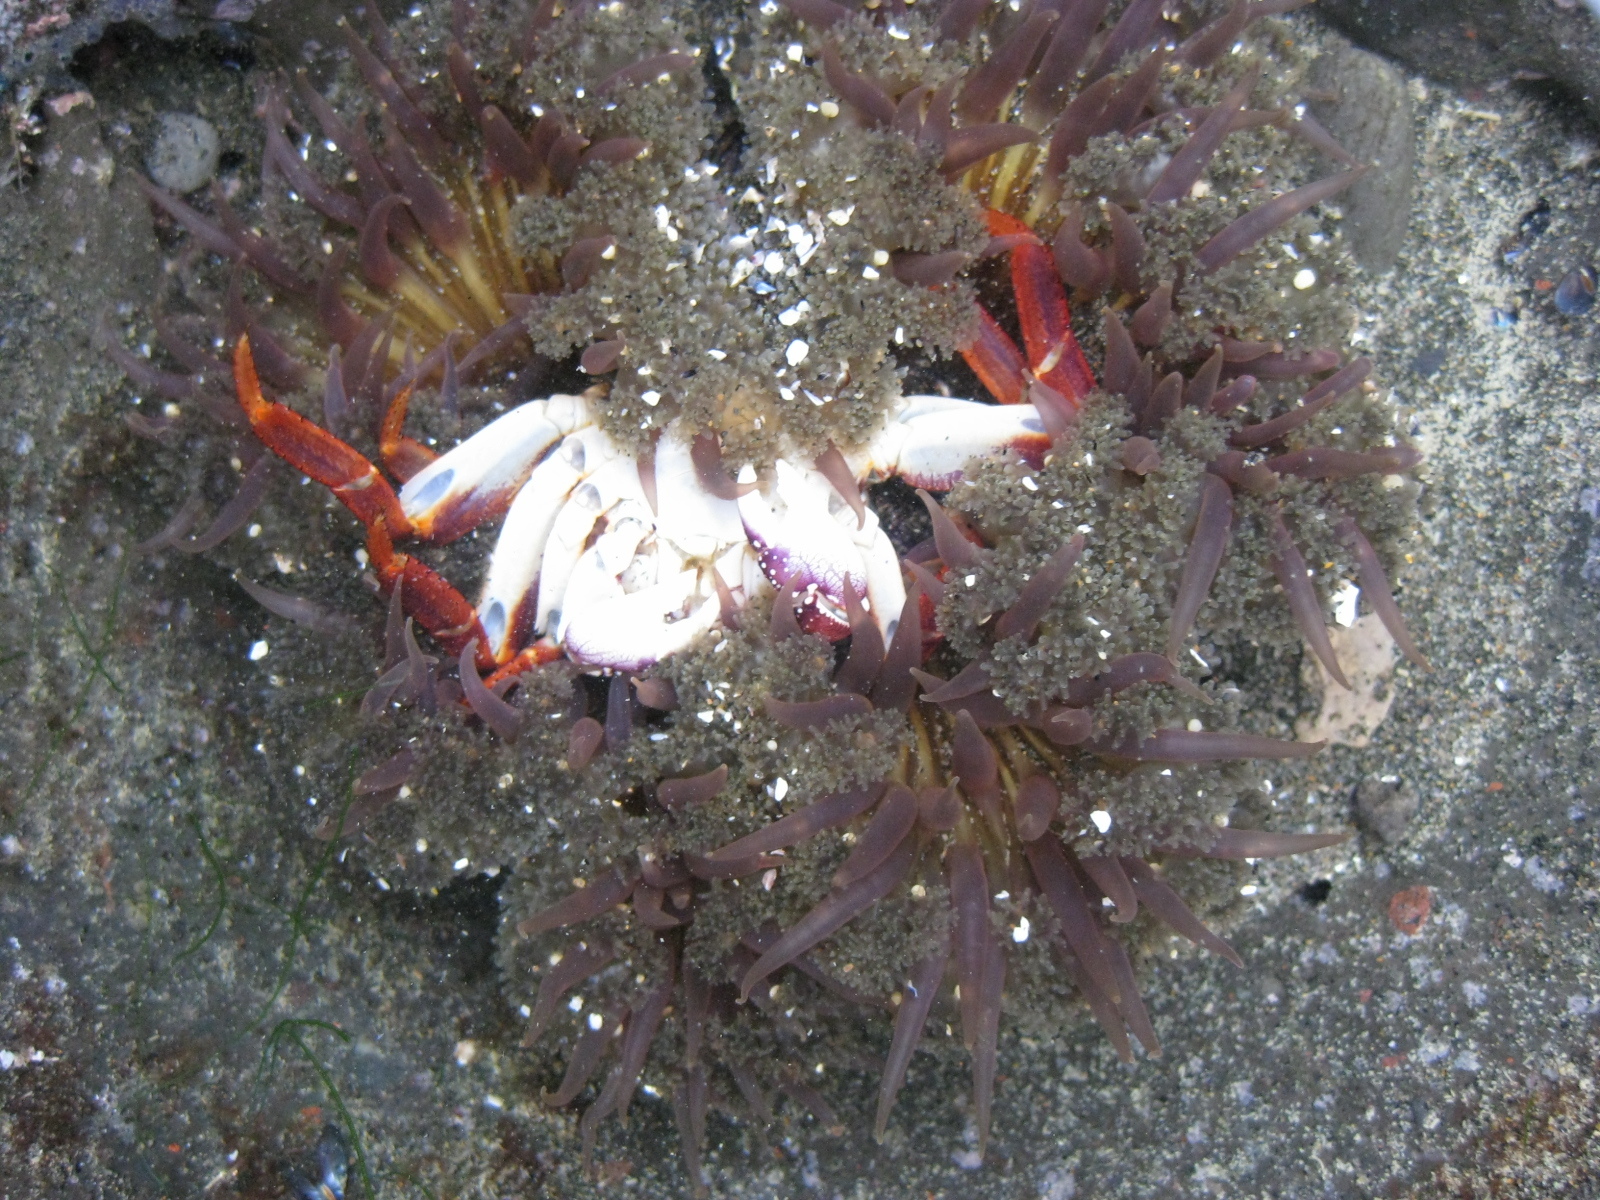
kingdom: Animalia
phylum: Cnidaria
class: Anthozoa
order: Actiniaria
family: Actiniidae
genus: Oulactis
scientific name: Oulactis magna
